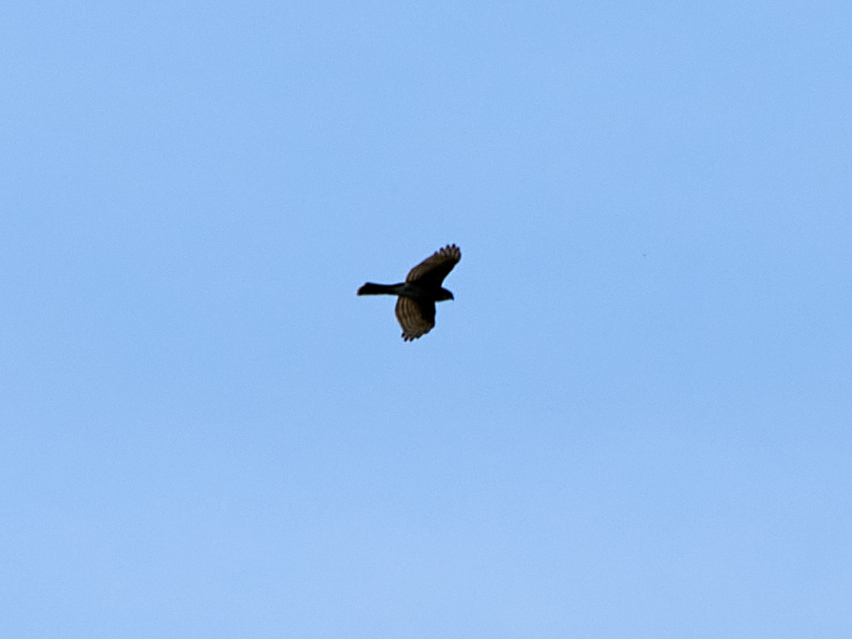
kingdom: Animalia
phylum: Chordata
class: Aves
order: Accipitriformes
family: Accipitridae
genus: Accipiter
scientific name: Accipiter nisus
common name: Eurasian sparrowhawk
